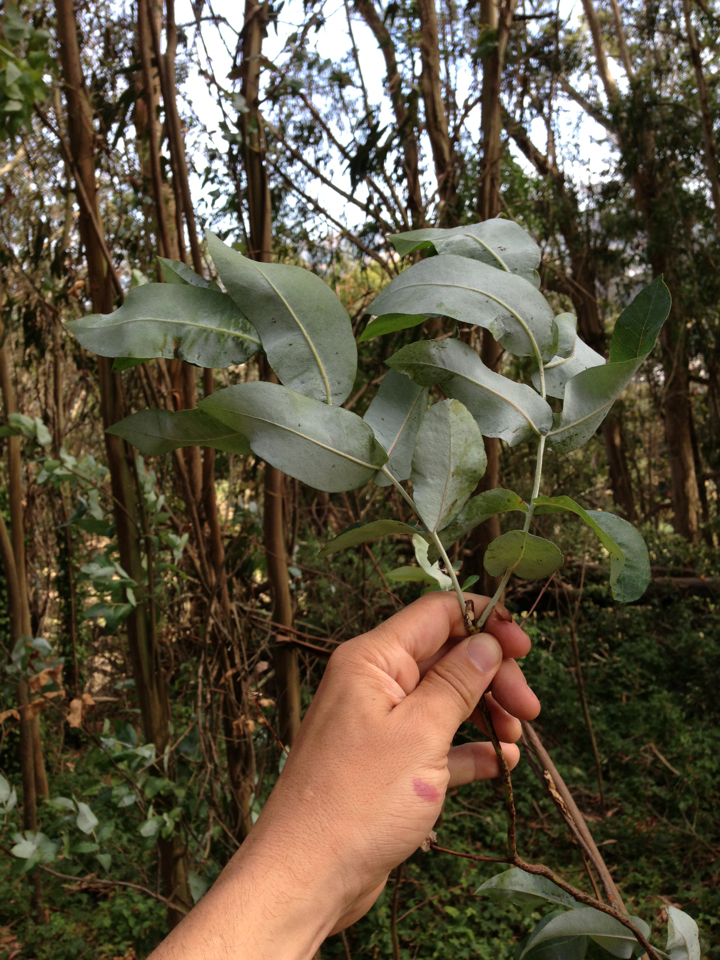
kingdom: Plantae
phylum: Tracheophyta
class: Magnoliopsida
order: Myrtales
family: Myrtaceae
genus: Eucalyptus
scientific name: Eucalyptus globulus
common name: Southern blue-gum
